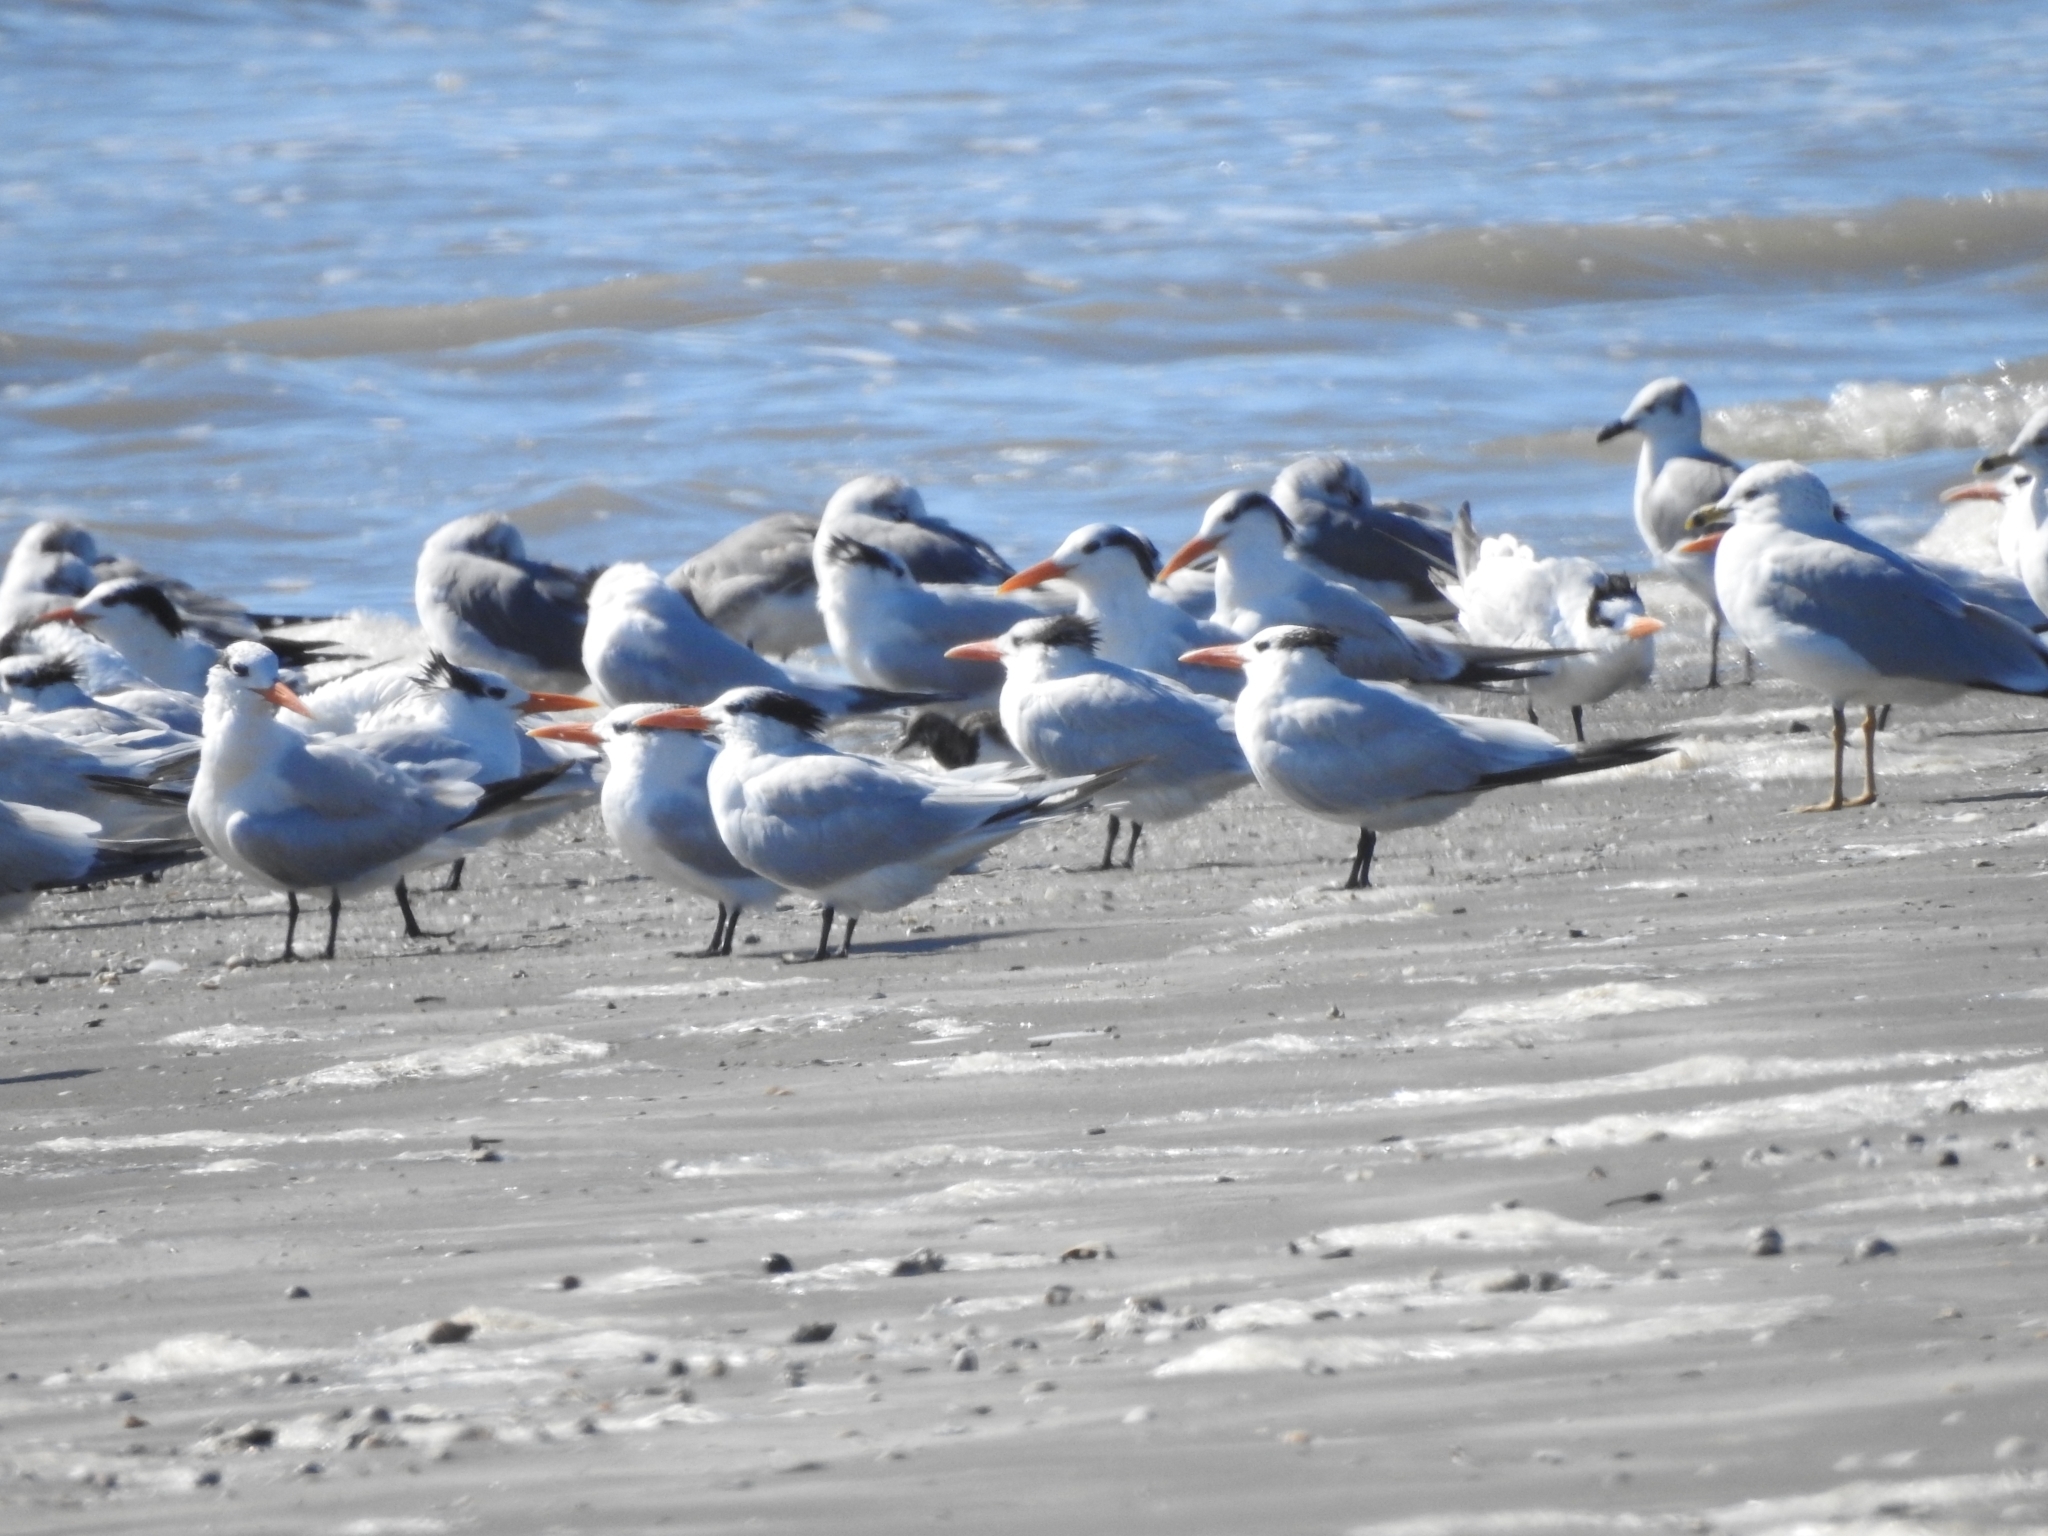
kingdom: Animalia
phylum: Chordata
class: Aves
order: Charadriiformes
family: Laridae
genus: Leucophaeus
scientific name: Leucophaeus atricilla
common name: Laughing gull
